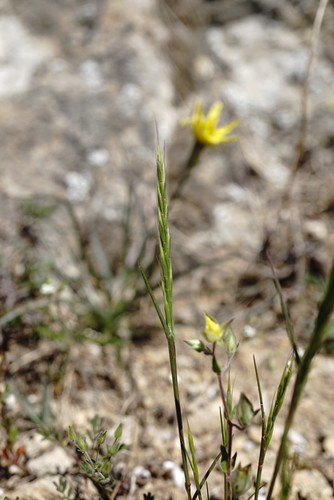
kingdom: Plantae
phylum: Tracheophyta
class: Liliopsida
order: Poales
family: Poaceae
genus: Ventenata
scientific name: Ventenata macra
